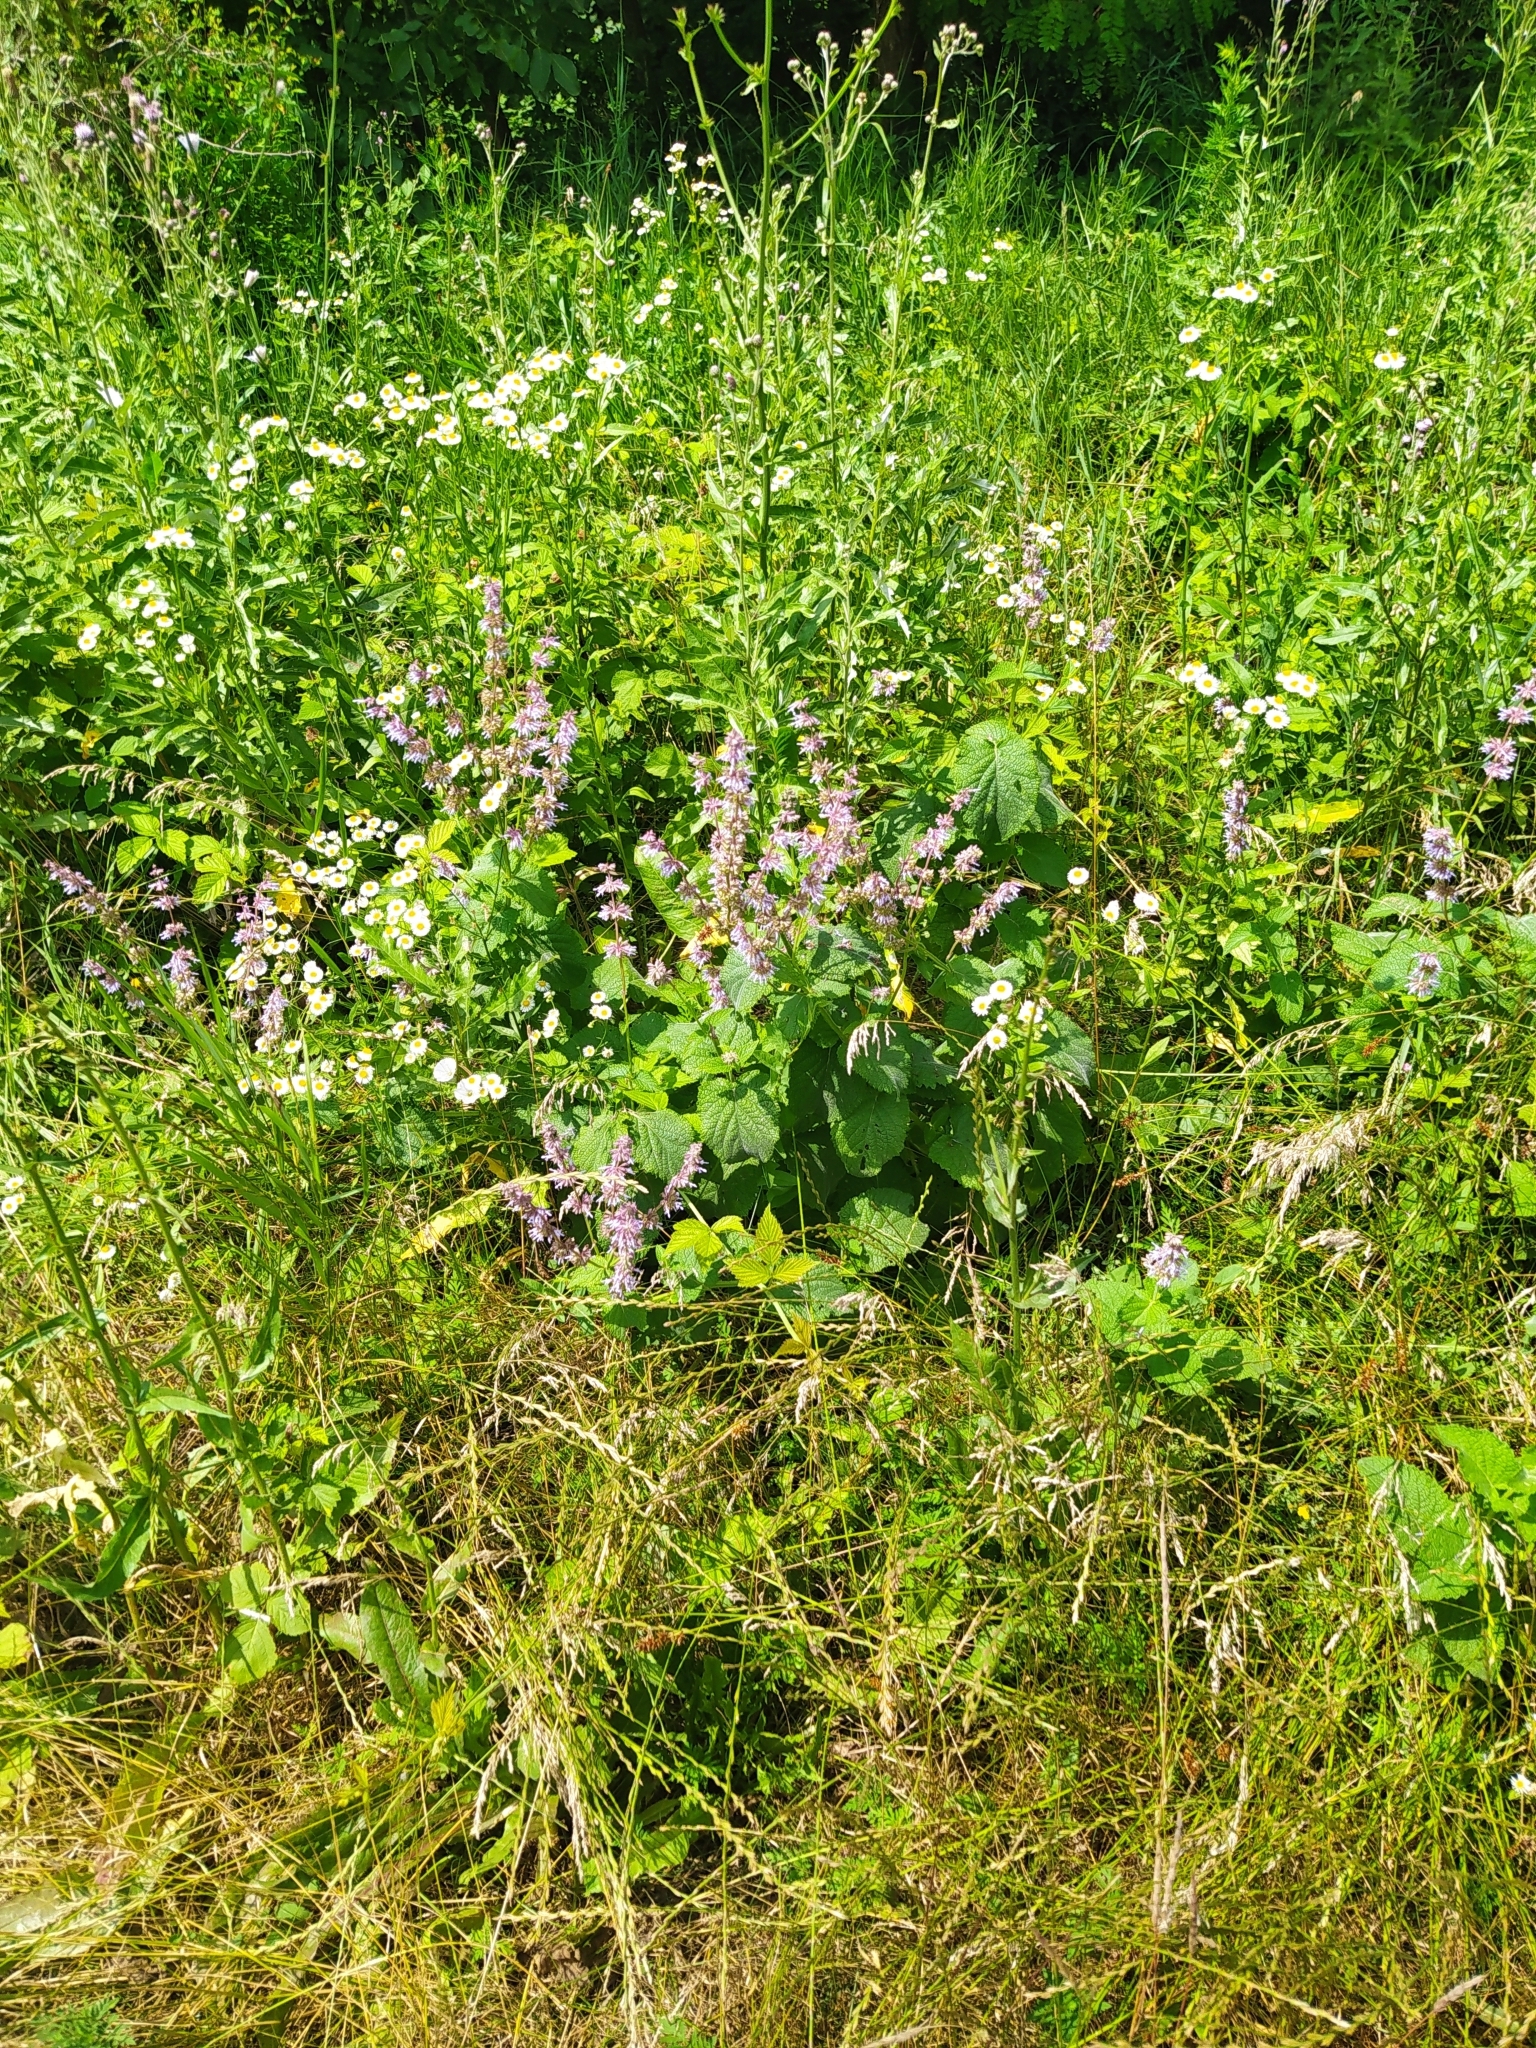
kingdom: Plantae
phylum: Tracheophyta
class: Magnoliopsida
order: Lamiales
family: Lamiaceae
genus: Salvia
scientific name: Salvia verticillata
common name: Whorled clary
